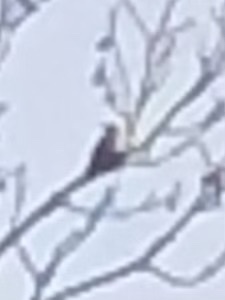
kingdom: Animalia
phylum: Chordata
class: Aves
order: Piciformes
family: Picidae
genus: Melanerpes
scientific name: Melanerpes carolinus
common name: Red-bellied woodpecker
